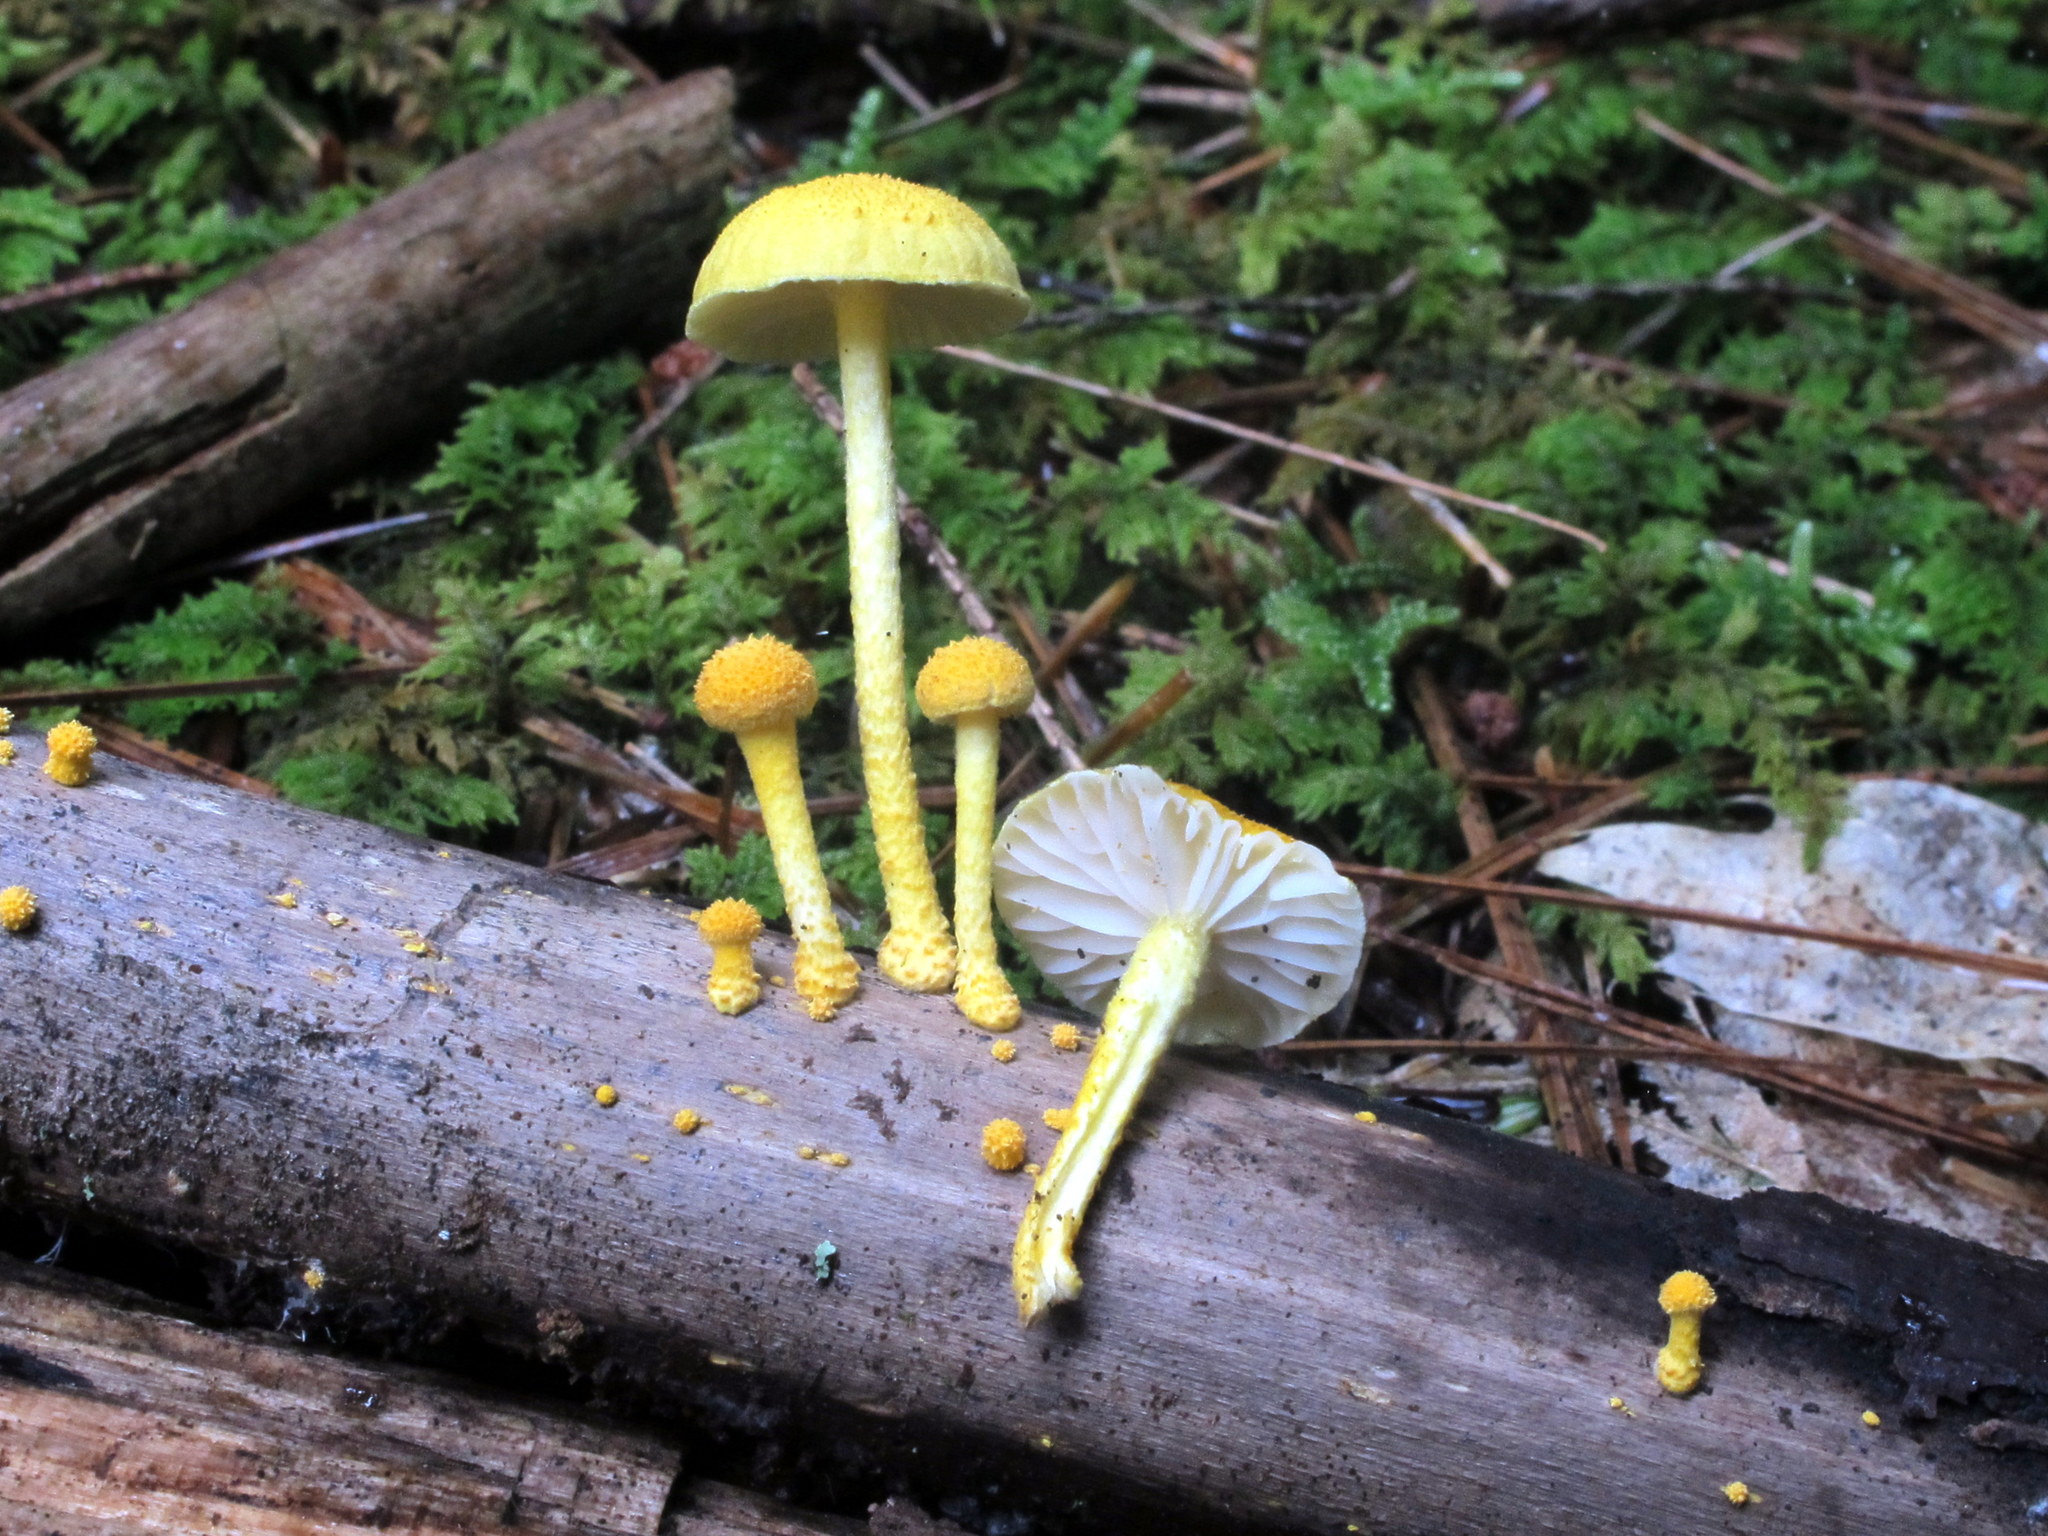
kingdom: Fungi
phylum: Basidiomycota
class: Agaricomycetes
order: Agaricales
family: Physalacriaceae
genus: Cyptotrama
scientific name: Cyptotrama chrysopepla
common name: Golden coincap
